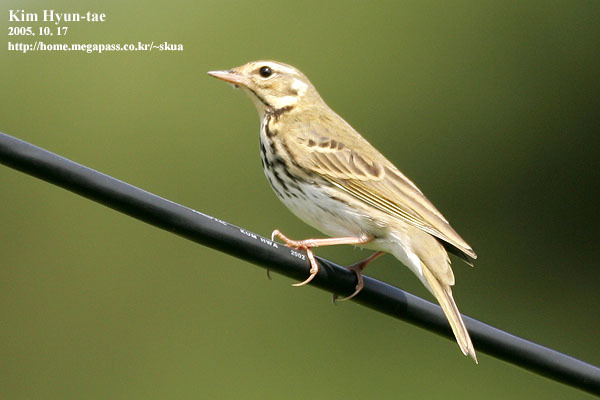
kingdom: Animalia
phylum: Chordata
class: Aves
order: Passeriformes
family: Motacillidae
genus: Anthus
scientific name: Anthus hodgsoni
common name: Olive-backed pipit
